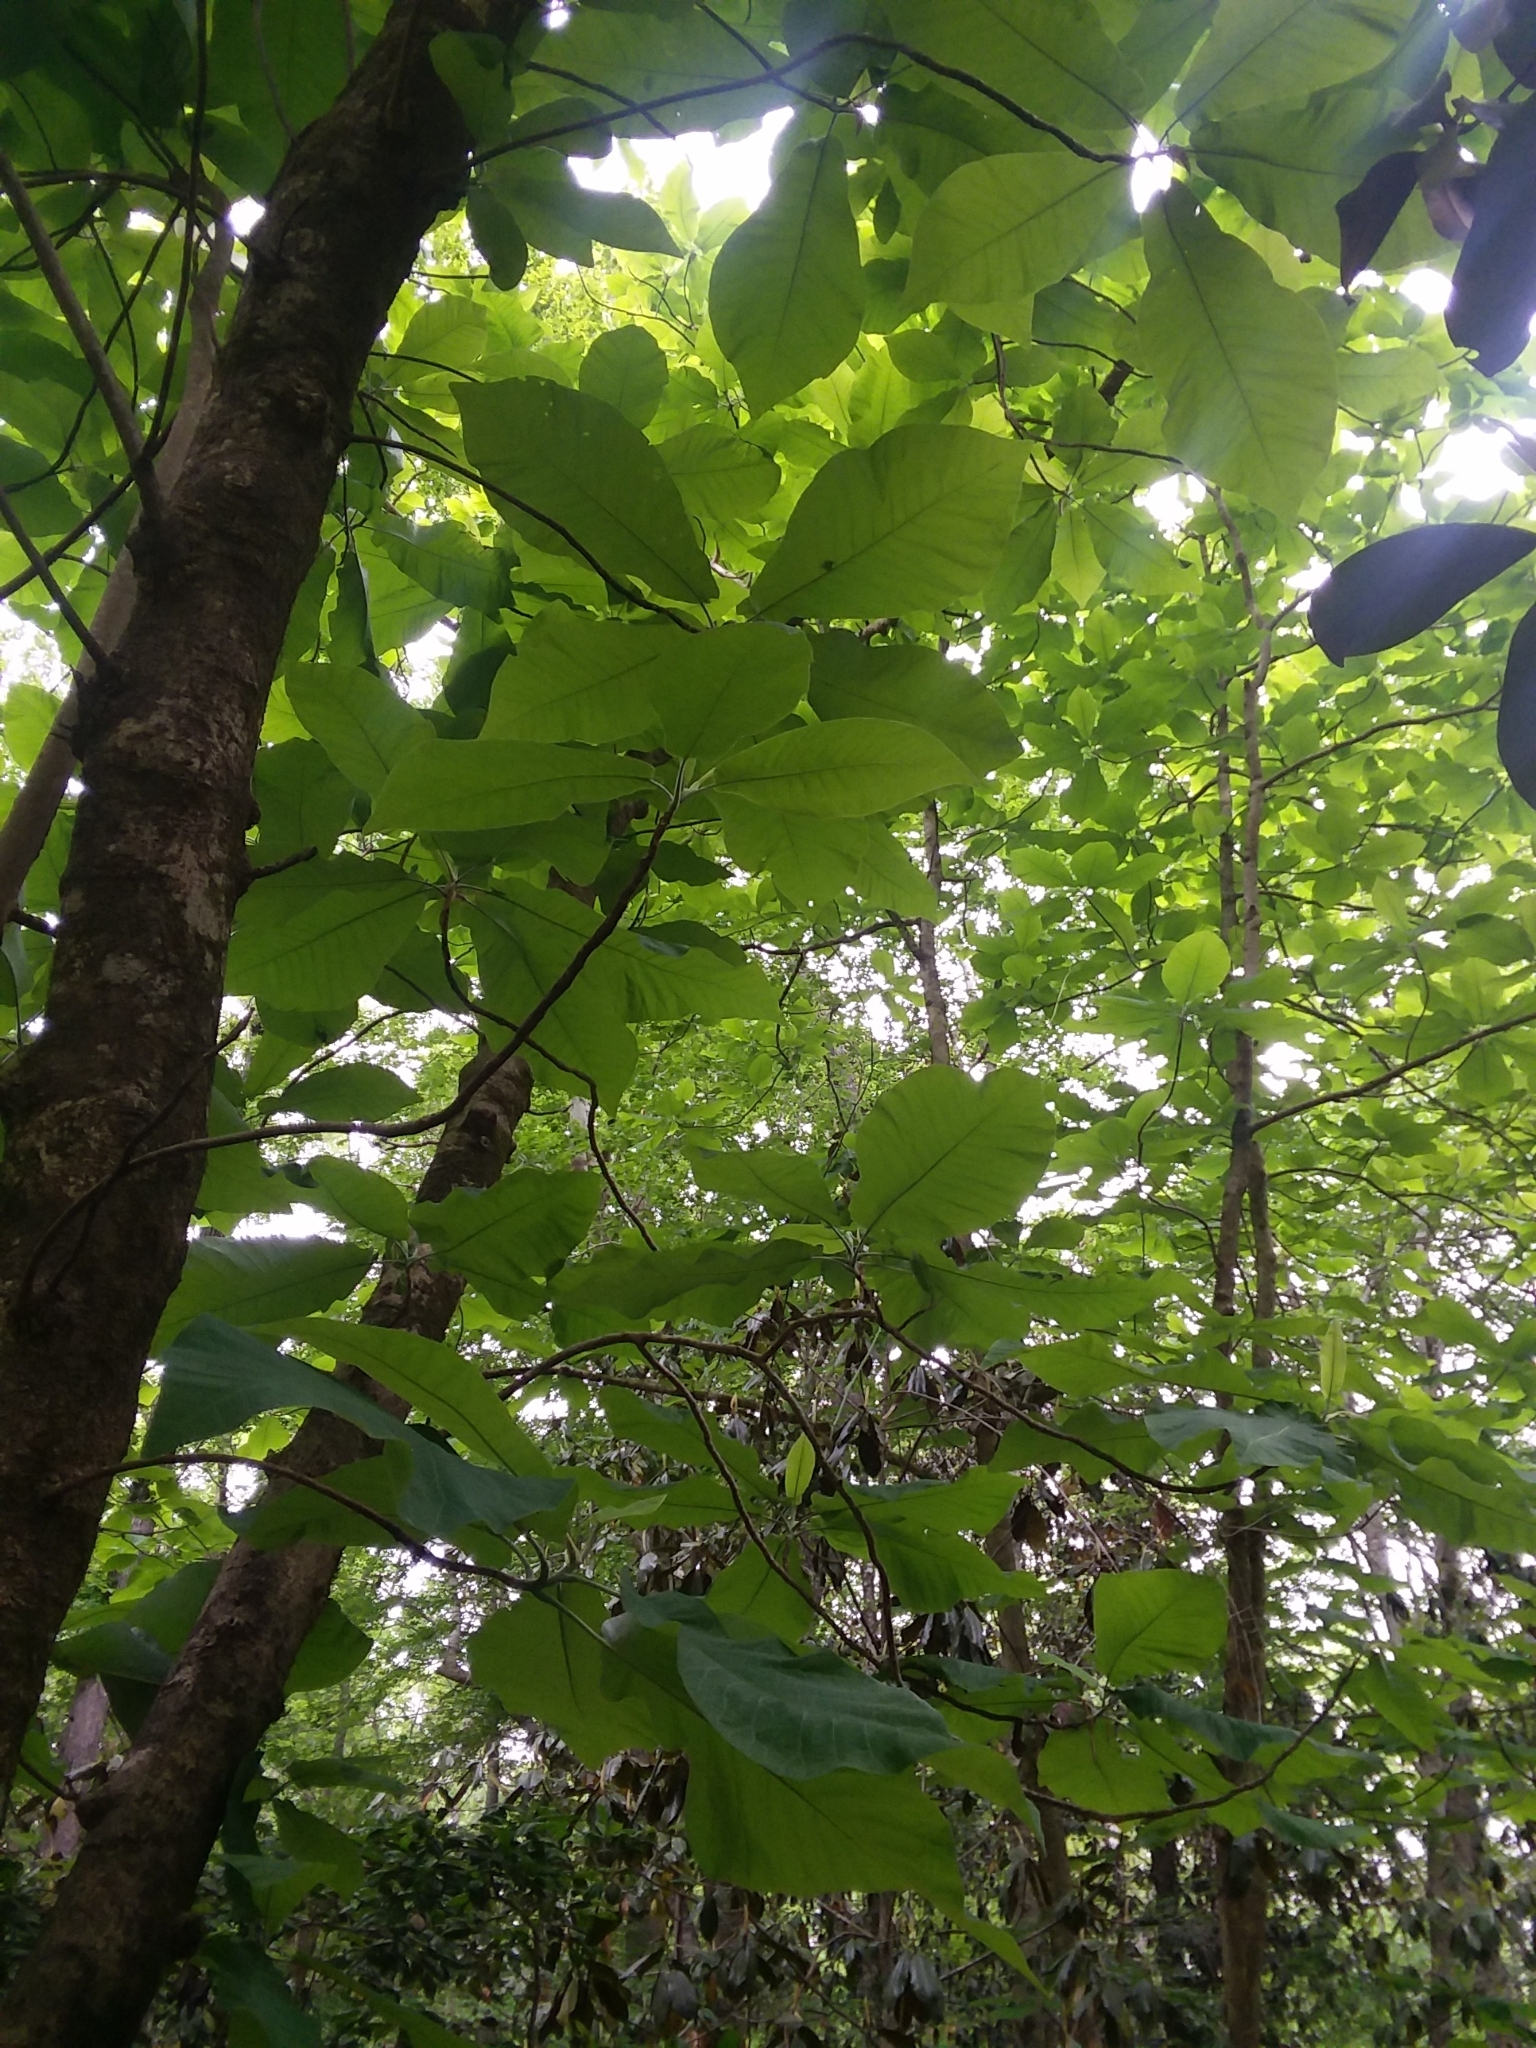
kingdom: Plantae
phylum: Tracheophyta
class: Magnoliopsida
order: Magnoliales
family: Magnoliaceae
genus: Magnolia
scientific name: Magnolia macrophylla
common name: Big-leaf magnolia
